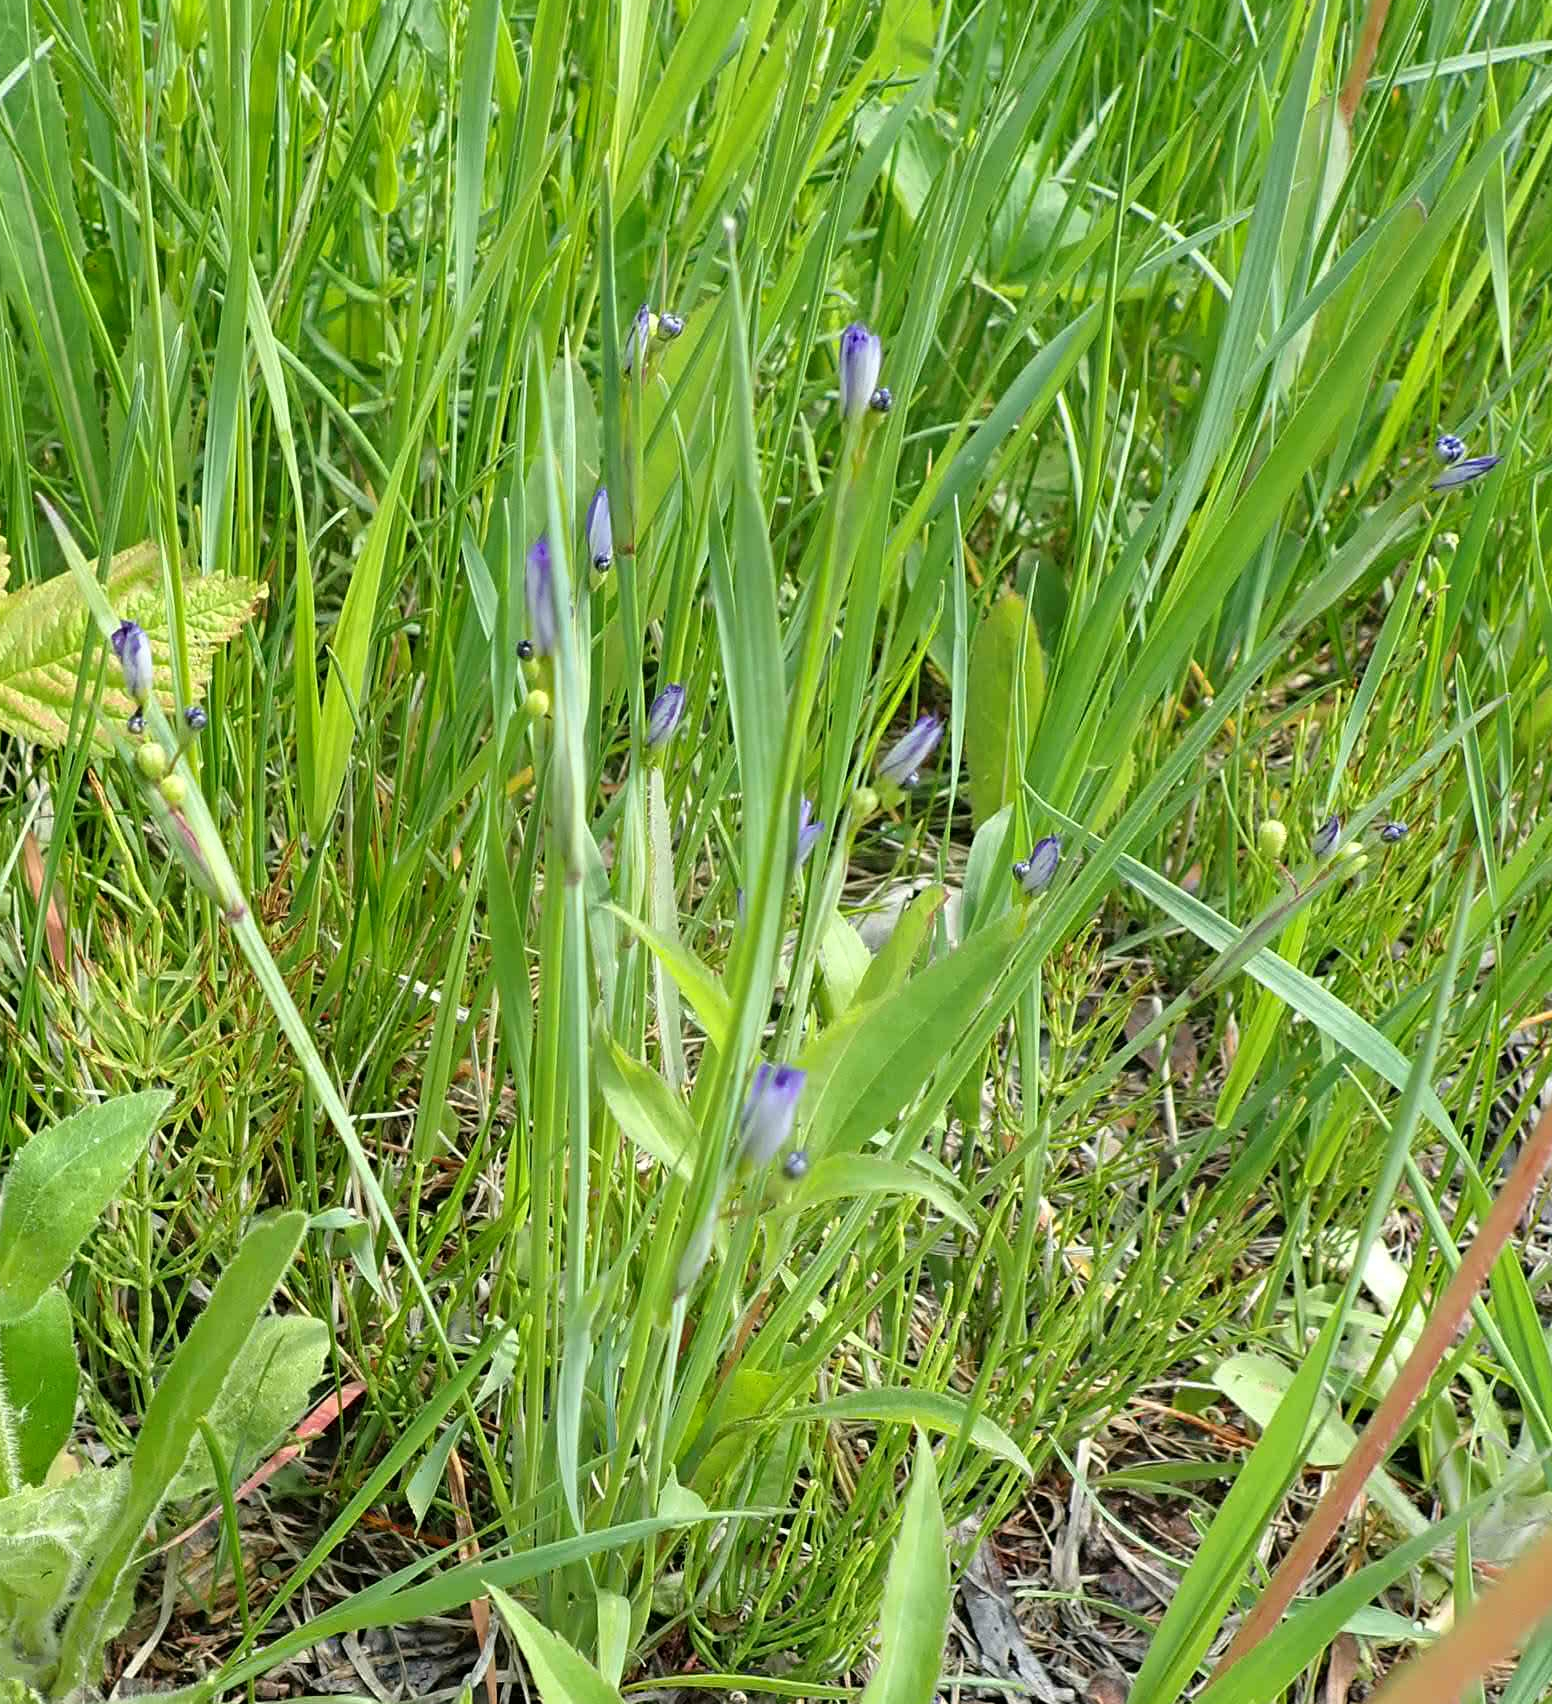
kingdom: Plantae
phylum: Tracheophyta
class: Liliopsida
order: Asparagales
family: Iridaceae
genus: Sisyrinchium
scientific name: Sisyrinchium montanum
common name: American blue-eyed-grass
